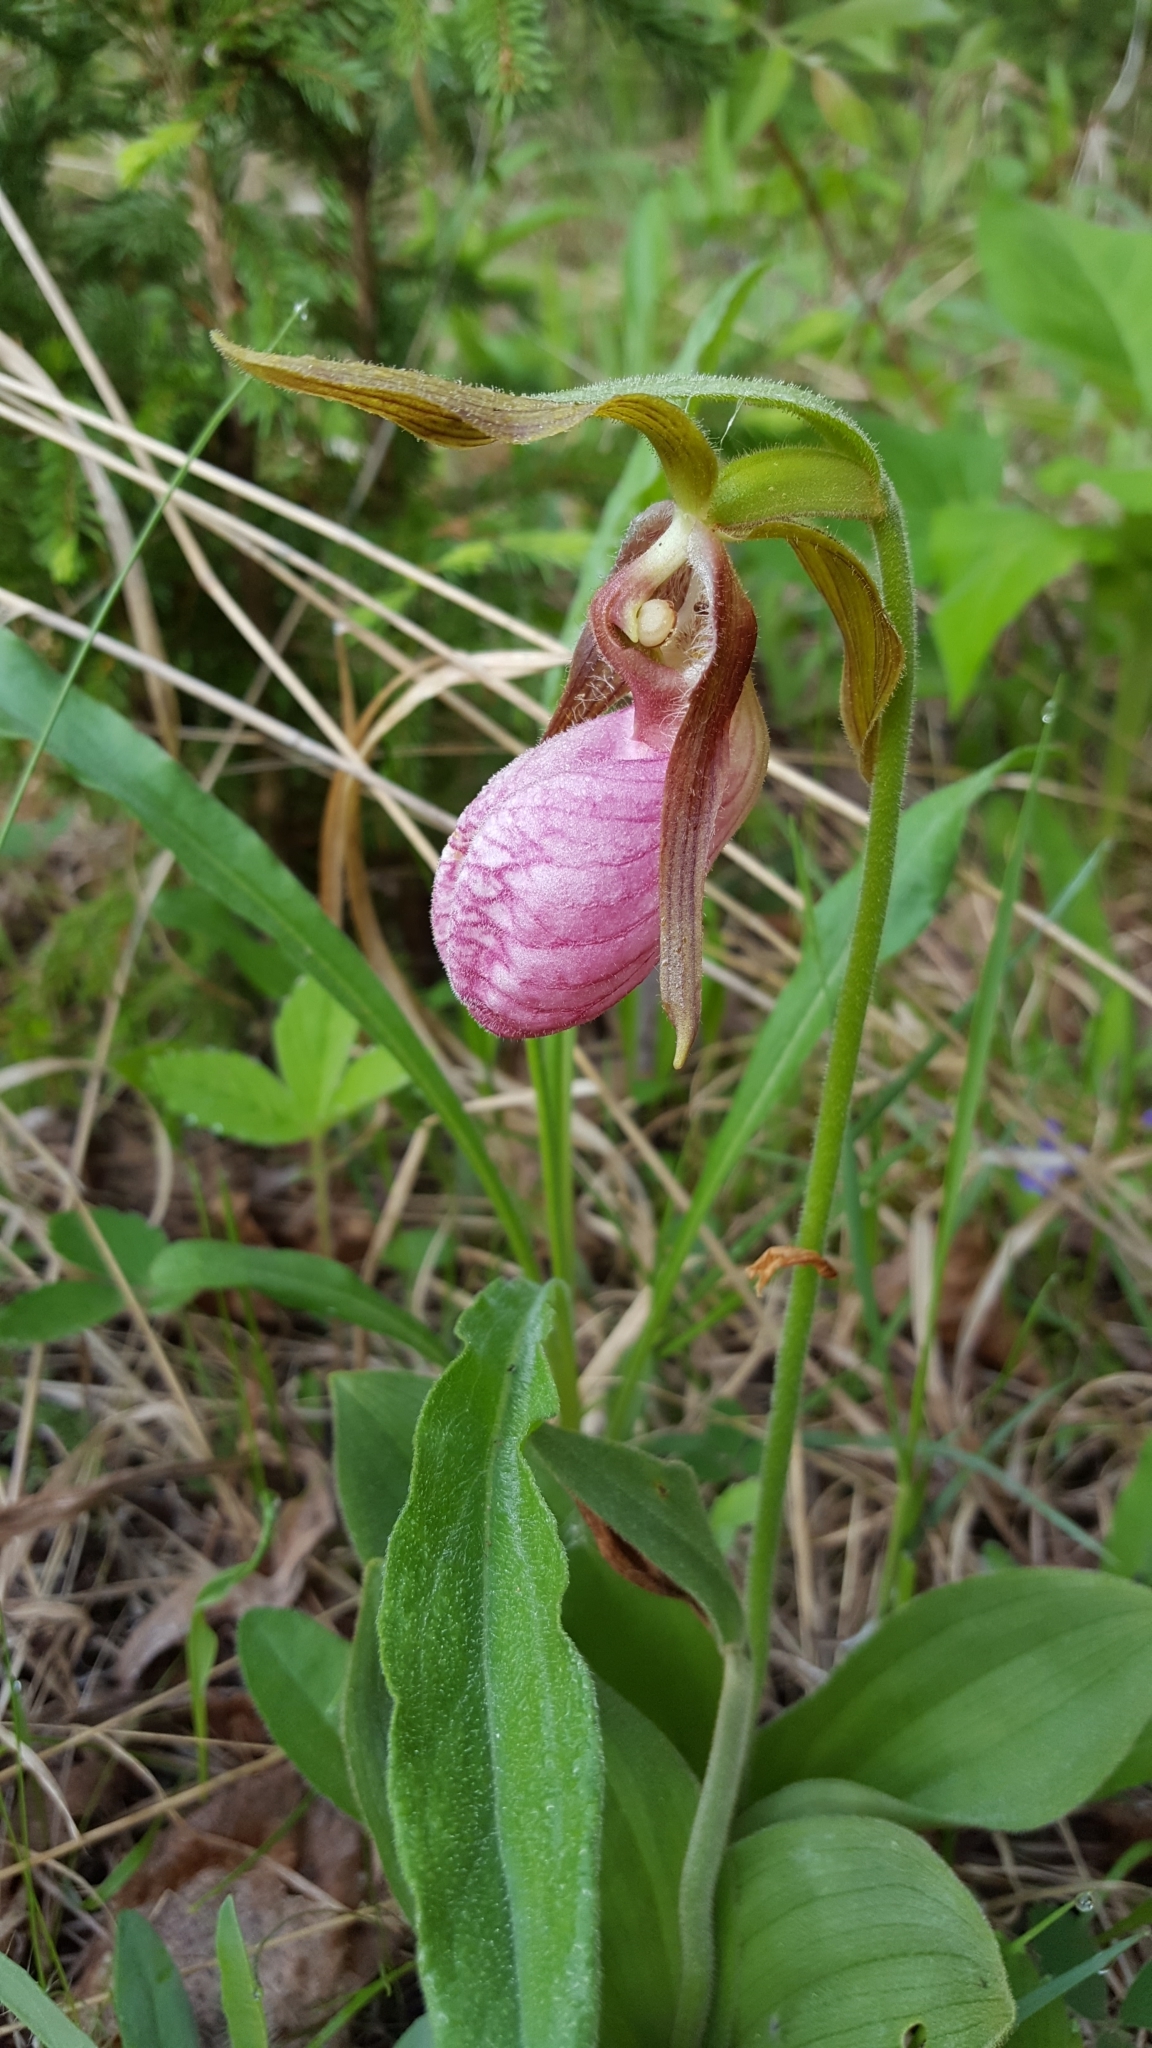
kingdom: Plantae
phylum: Tracheophyta
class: Liliopsida
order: Asparagales
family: Orchidaceae
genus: Cypripedium
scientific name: Cypripedium acaule
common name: Pink lady's-slipper
